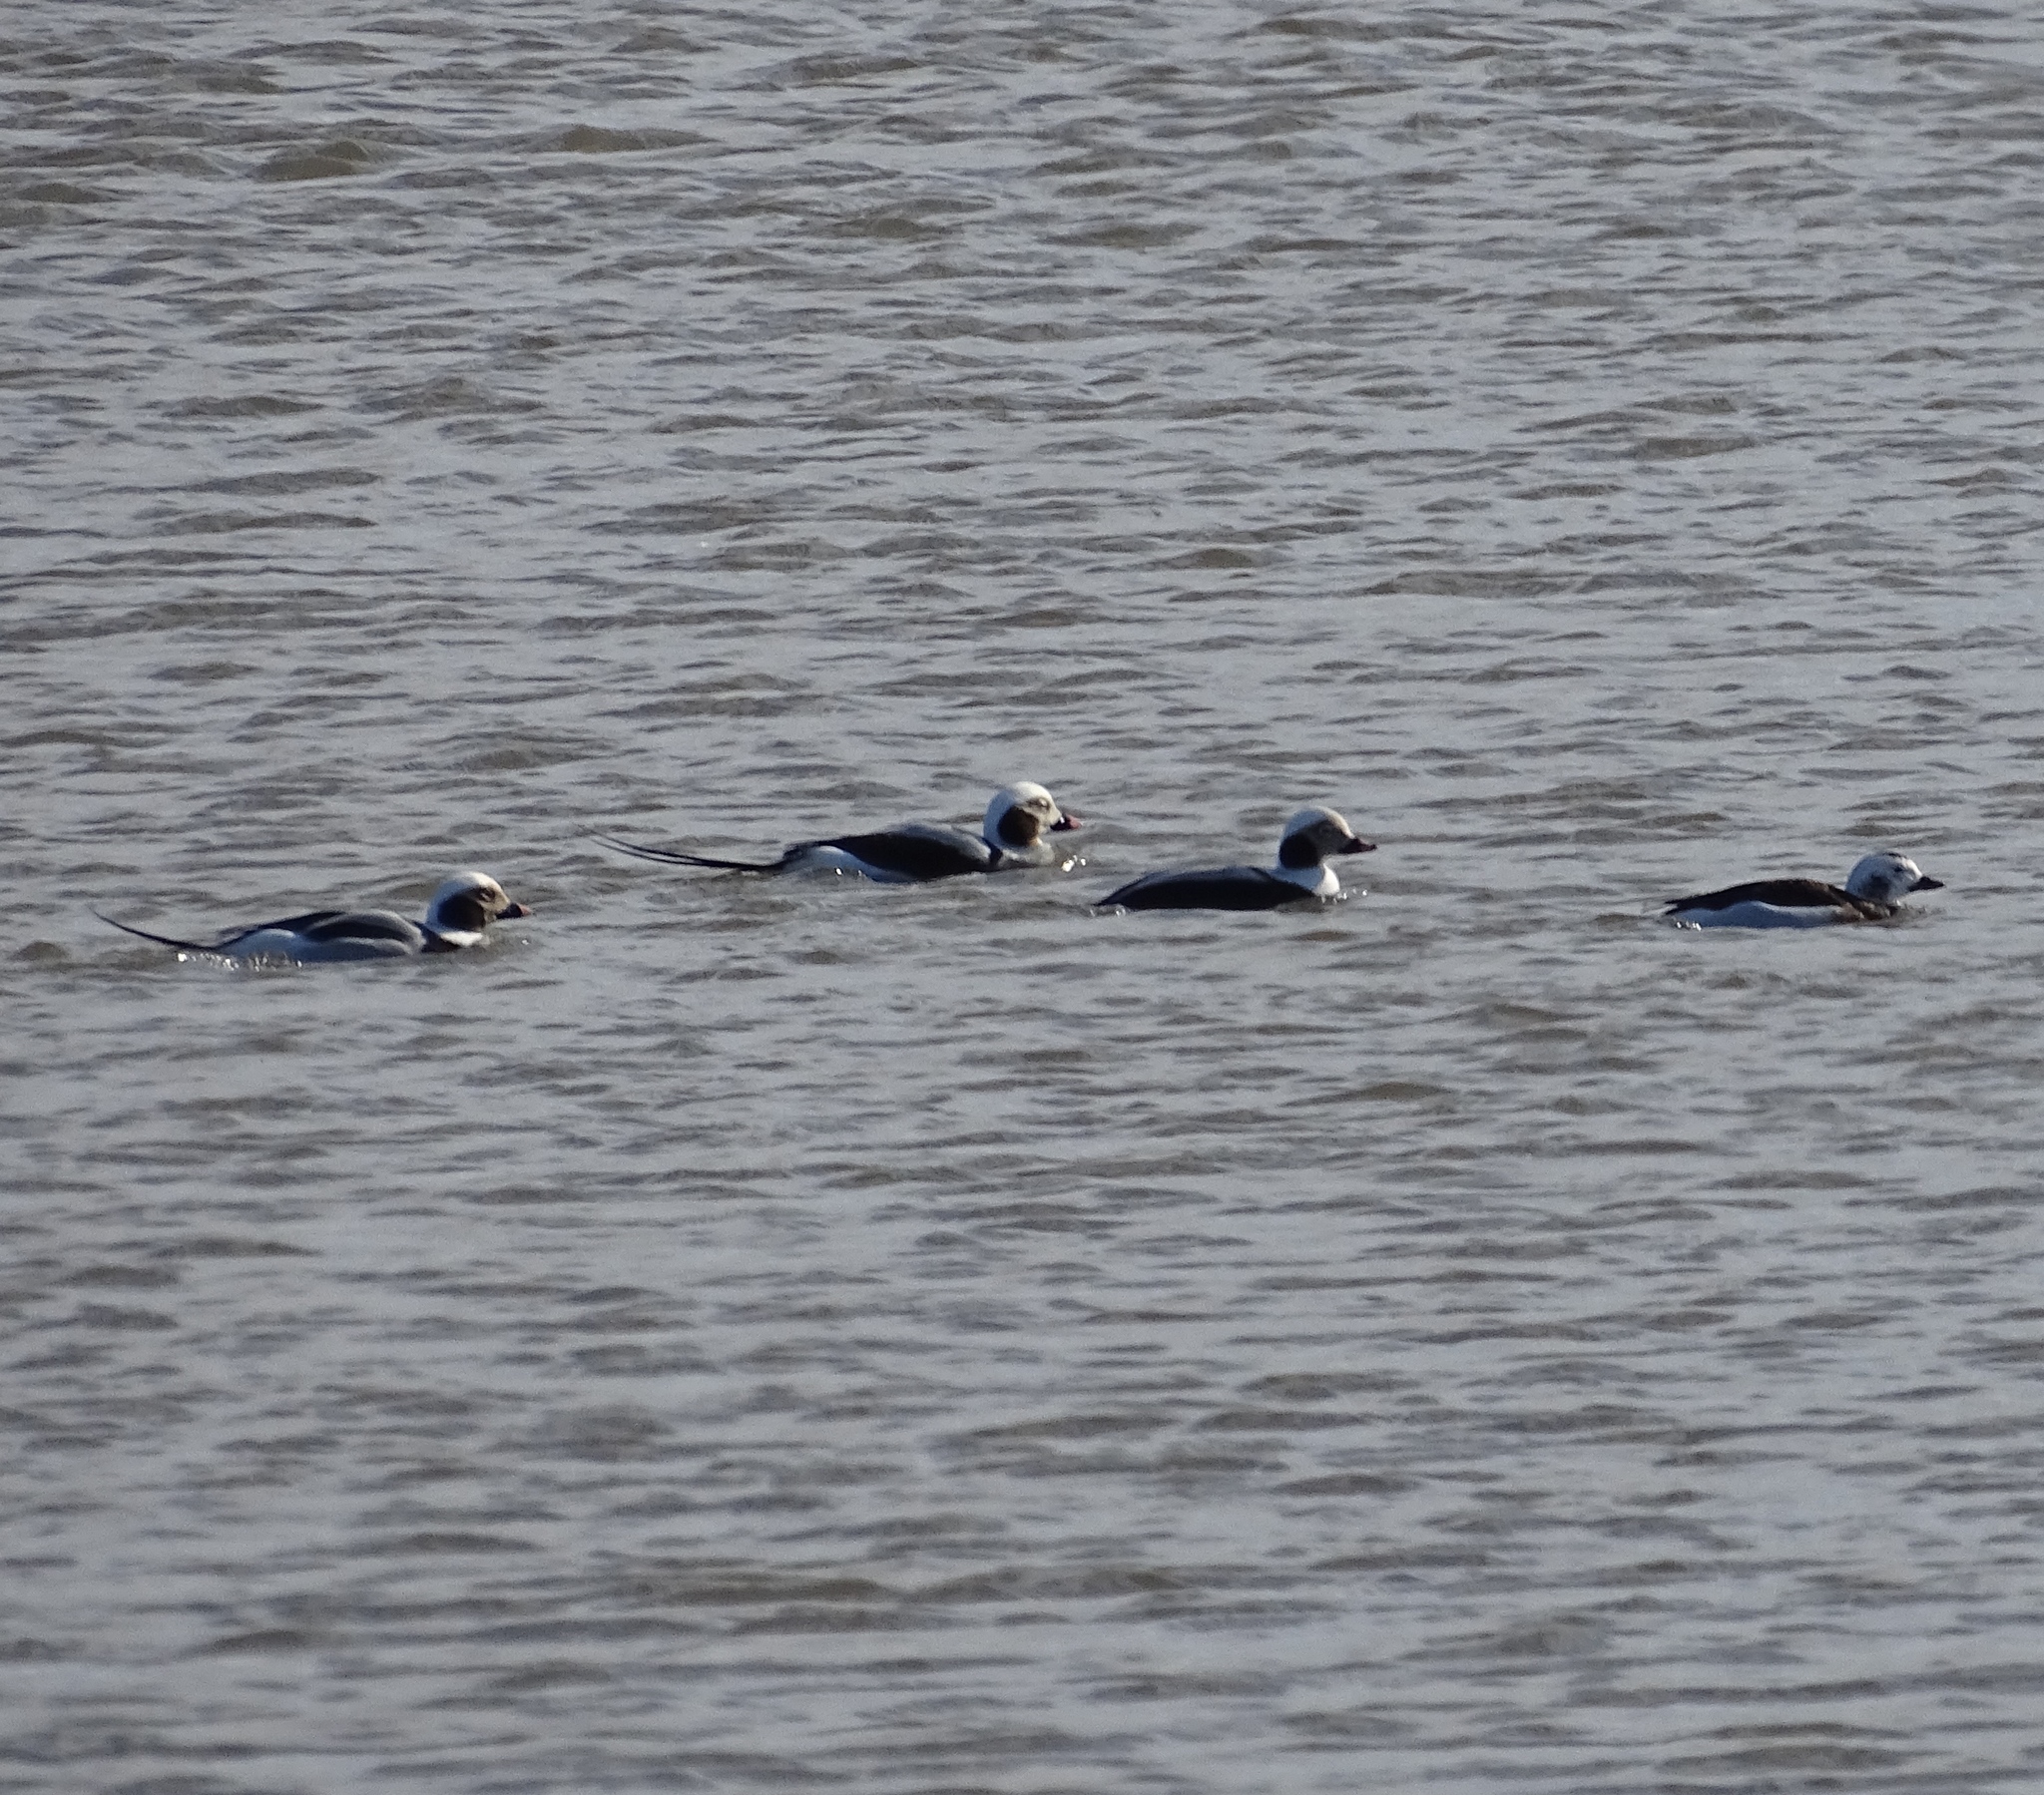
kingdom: Animalia
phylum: Chordata
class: Aves
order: Anseriformes
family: Anatidae
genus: Clangula
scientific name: Clangula hyemalis
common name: Long-tailed duck
